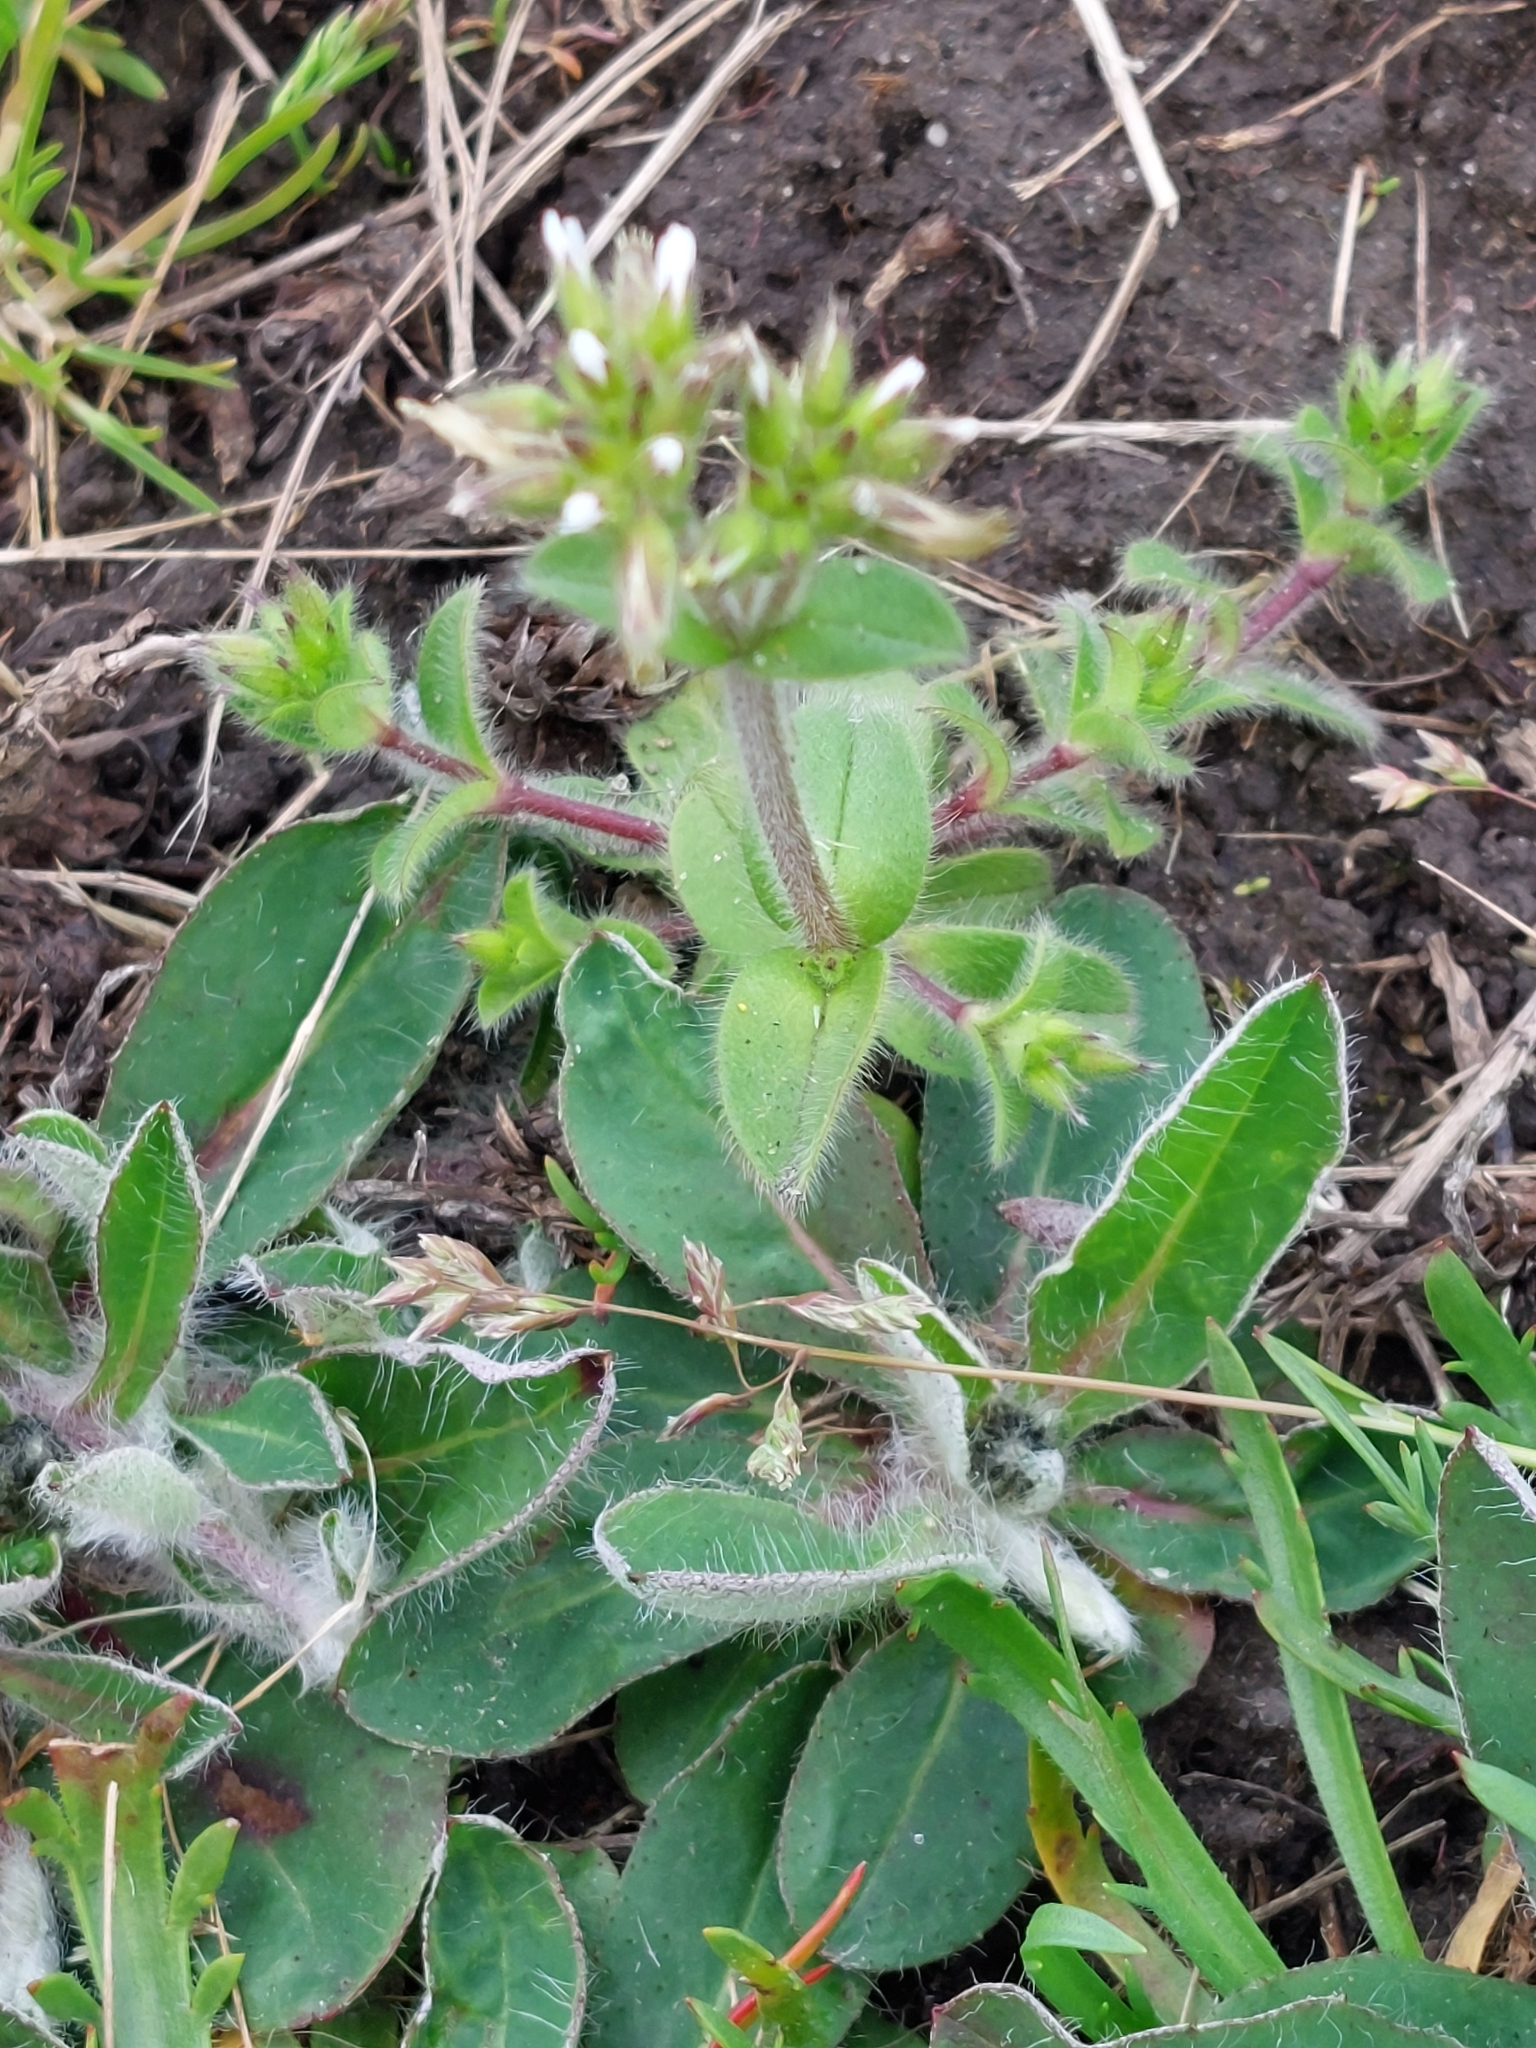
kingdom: Plantae
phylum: Tracheophyta
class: Magnoliopsida
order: Caryophyllales
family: Caryophyllaceae
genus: Cerastium
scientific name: Cerastium glomeratum
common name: Sticky chickweed
